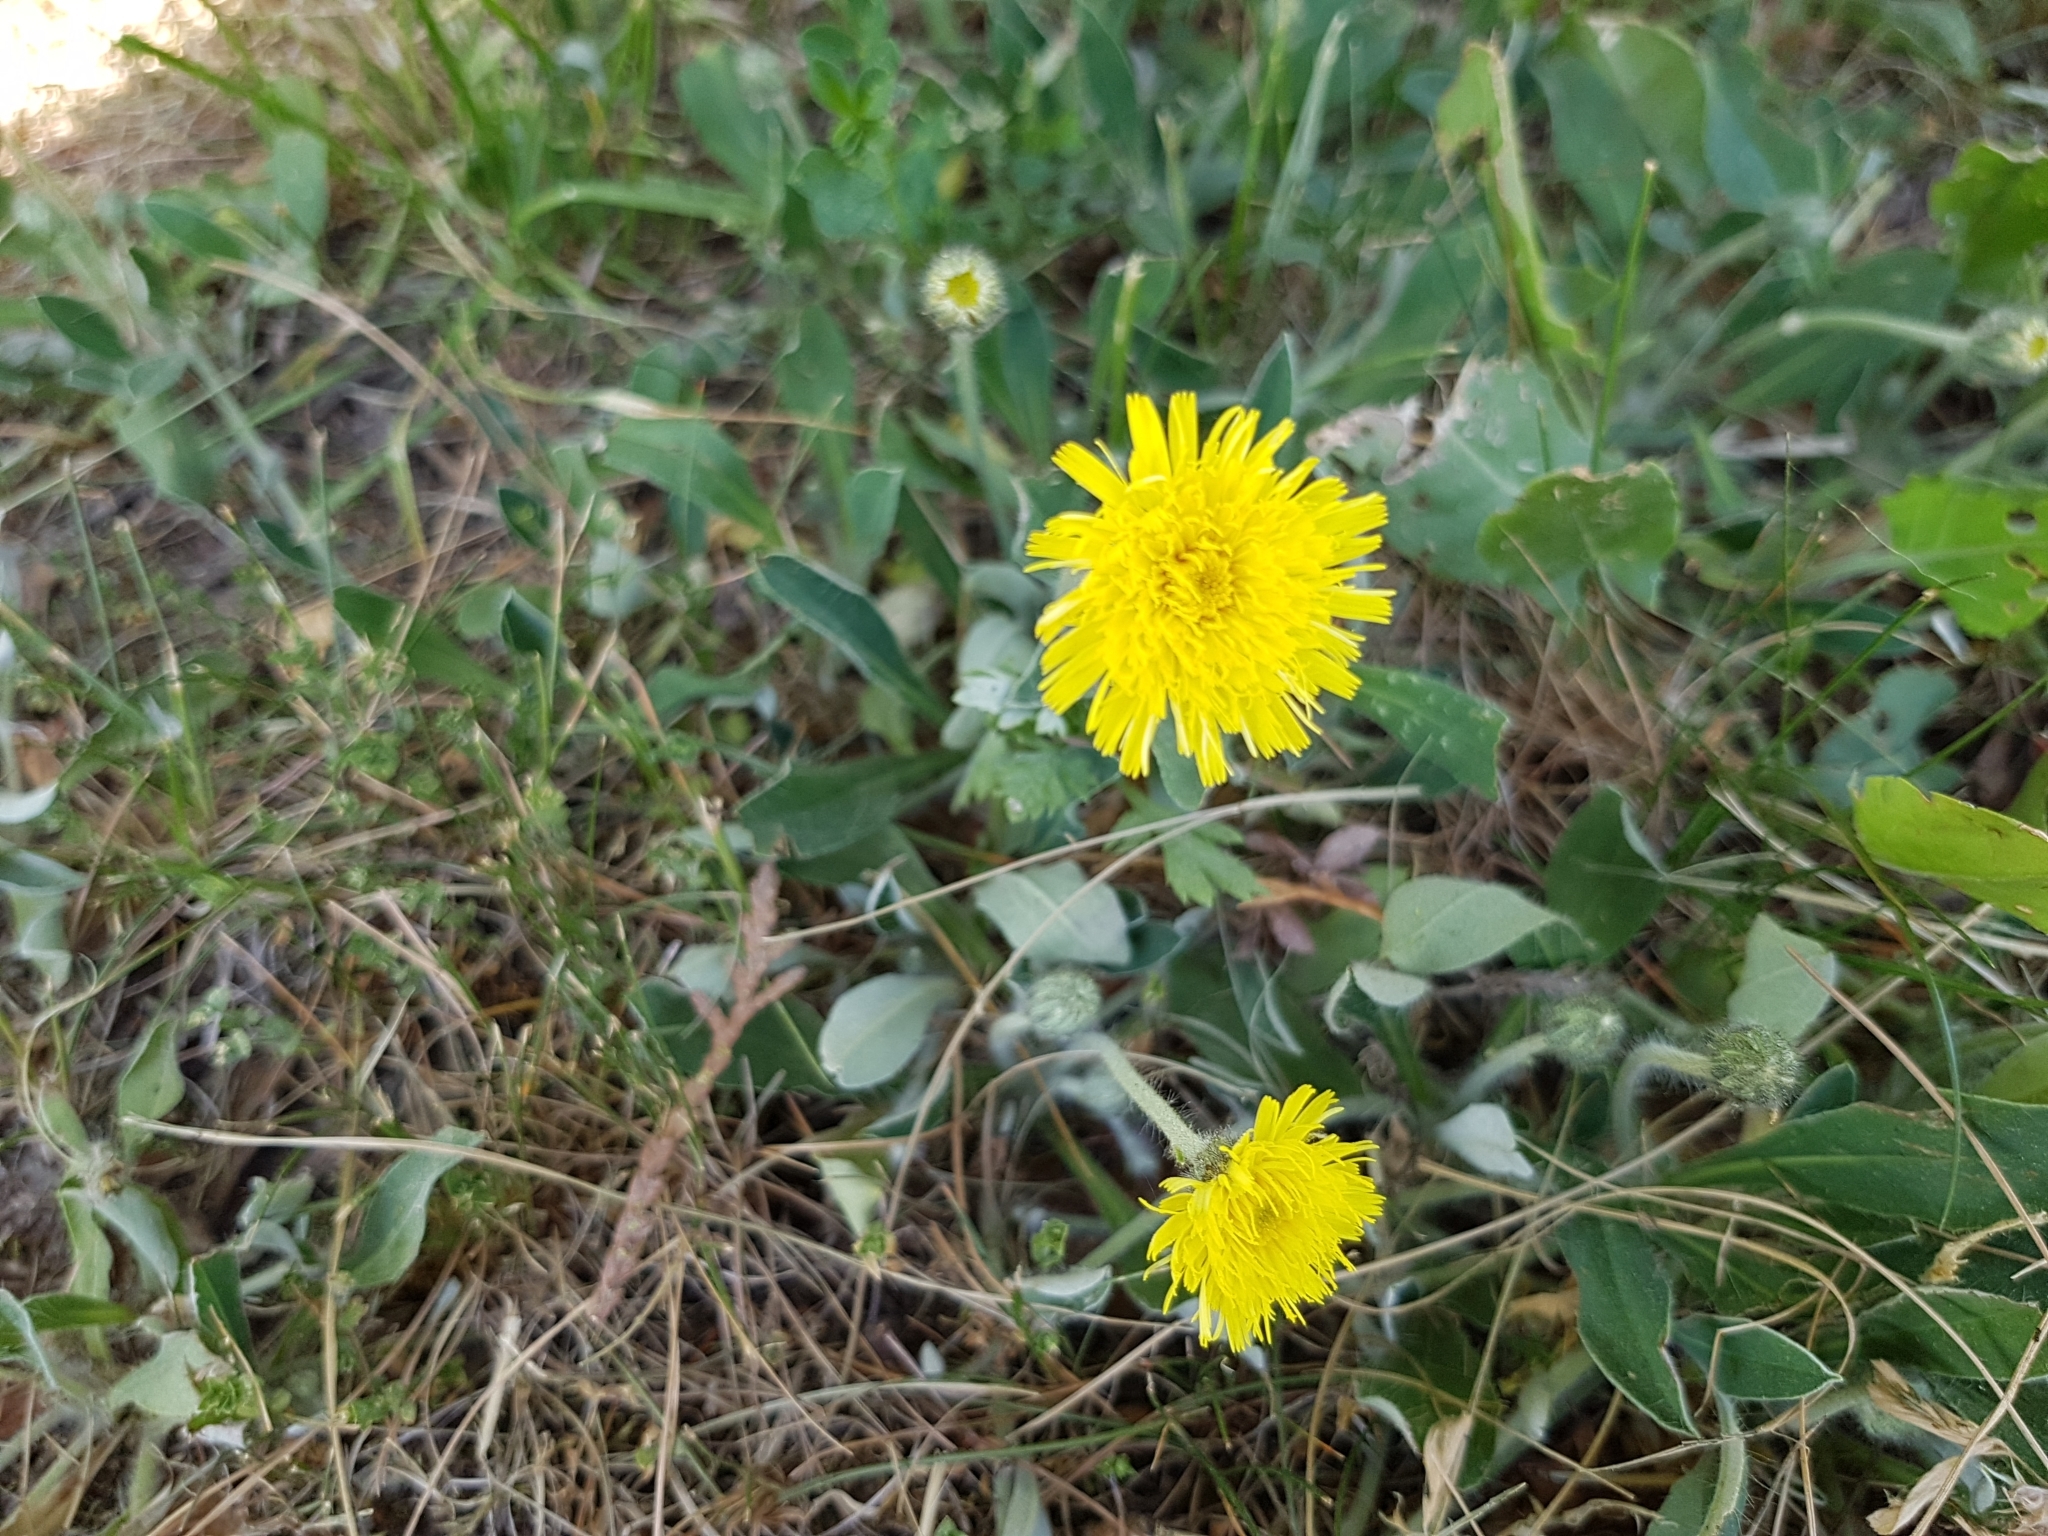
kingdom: Plantae
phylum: Tracheophyta
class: Magnoliopsida
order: Asterales
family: Asteraceae
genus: Pilosella
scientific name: Pilosella officinarum
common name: Mouse-ear hawkweed
